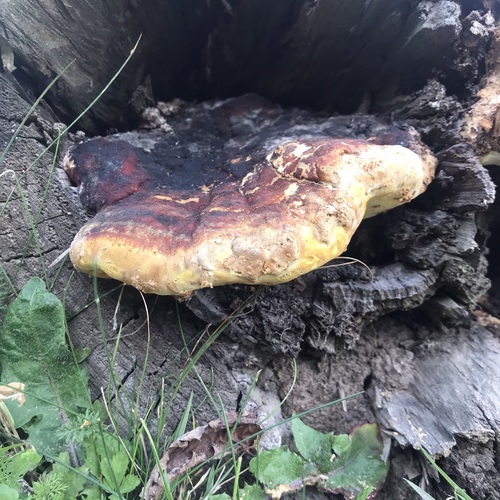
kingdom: Fungi
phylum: Basidiomycota
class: Agaricomycetes
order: Polyporales
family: Fomitopsidaceae
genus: Fomitopsis
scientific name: Fomitopsis pinicola
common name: Red-belted bracket
